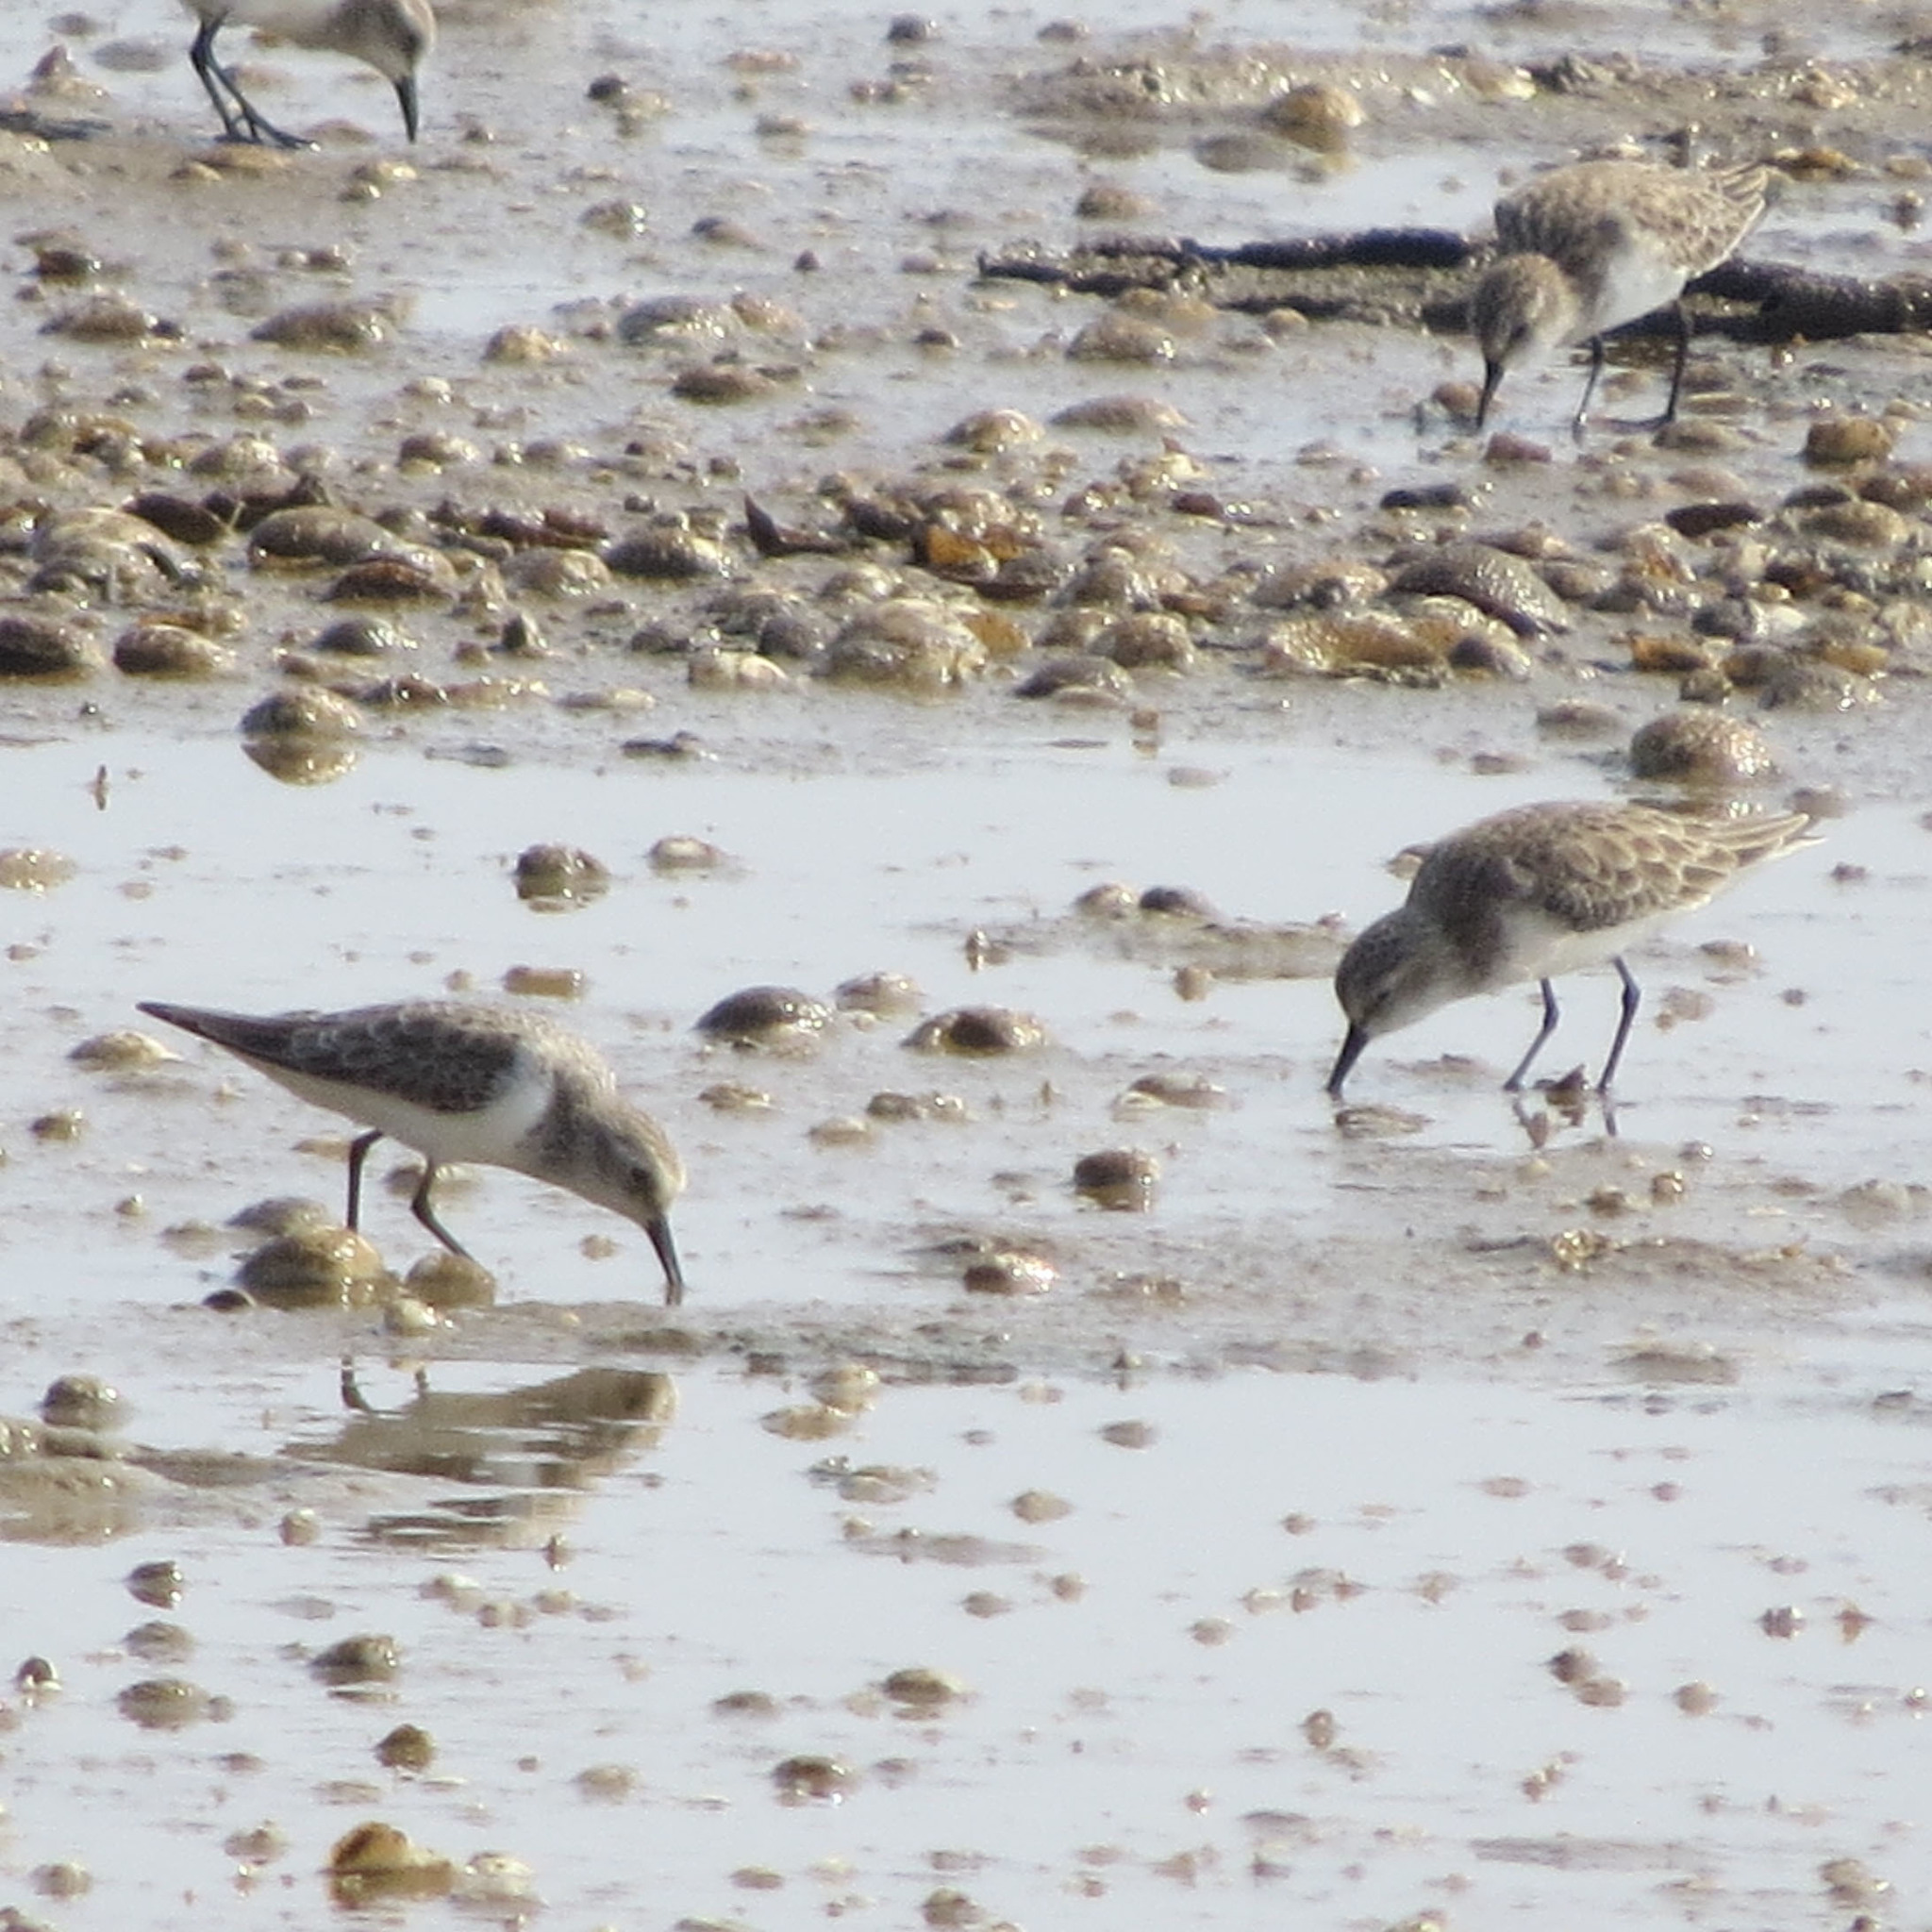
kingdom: Animalia
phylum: Chordata
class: Aves
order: Charadriiformes
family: Scolopacidae
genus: Calidris
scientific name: Calidris minuta
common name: Little stint
